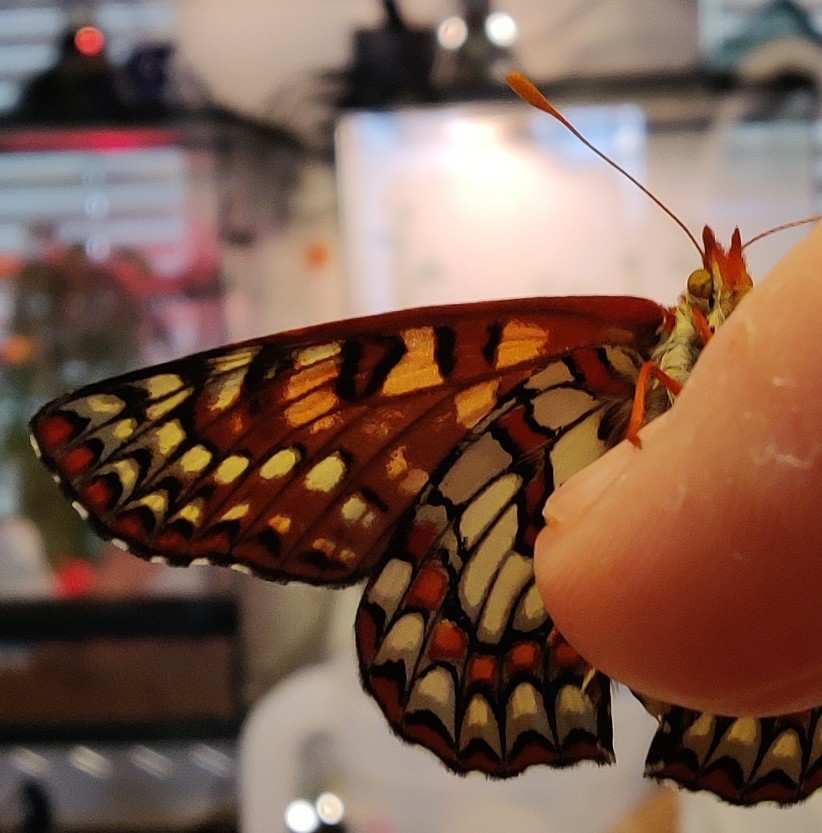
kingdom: Animalia
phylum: Arthropoda
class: Insecta
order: Lepidoptera
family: Nymphalidae
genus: Occidryas
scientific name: Occidryas chalcedona
